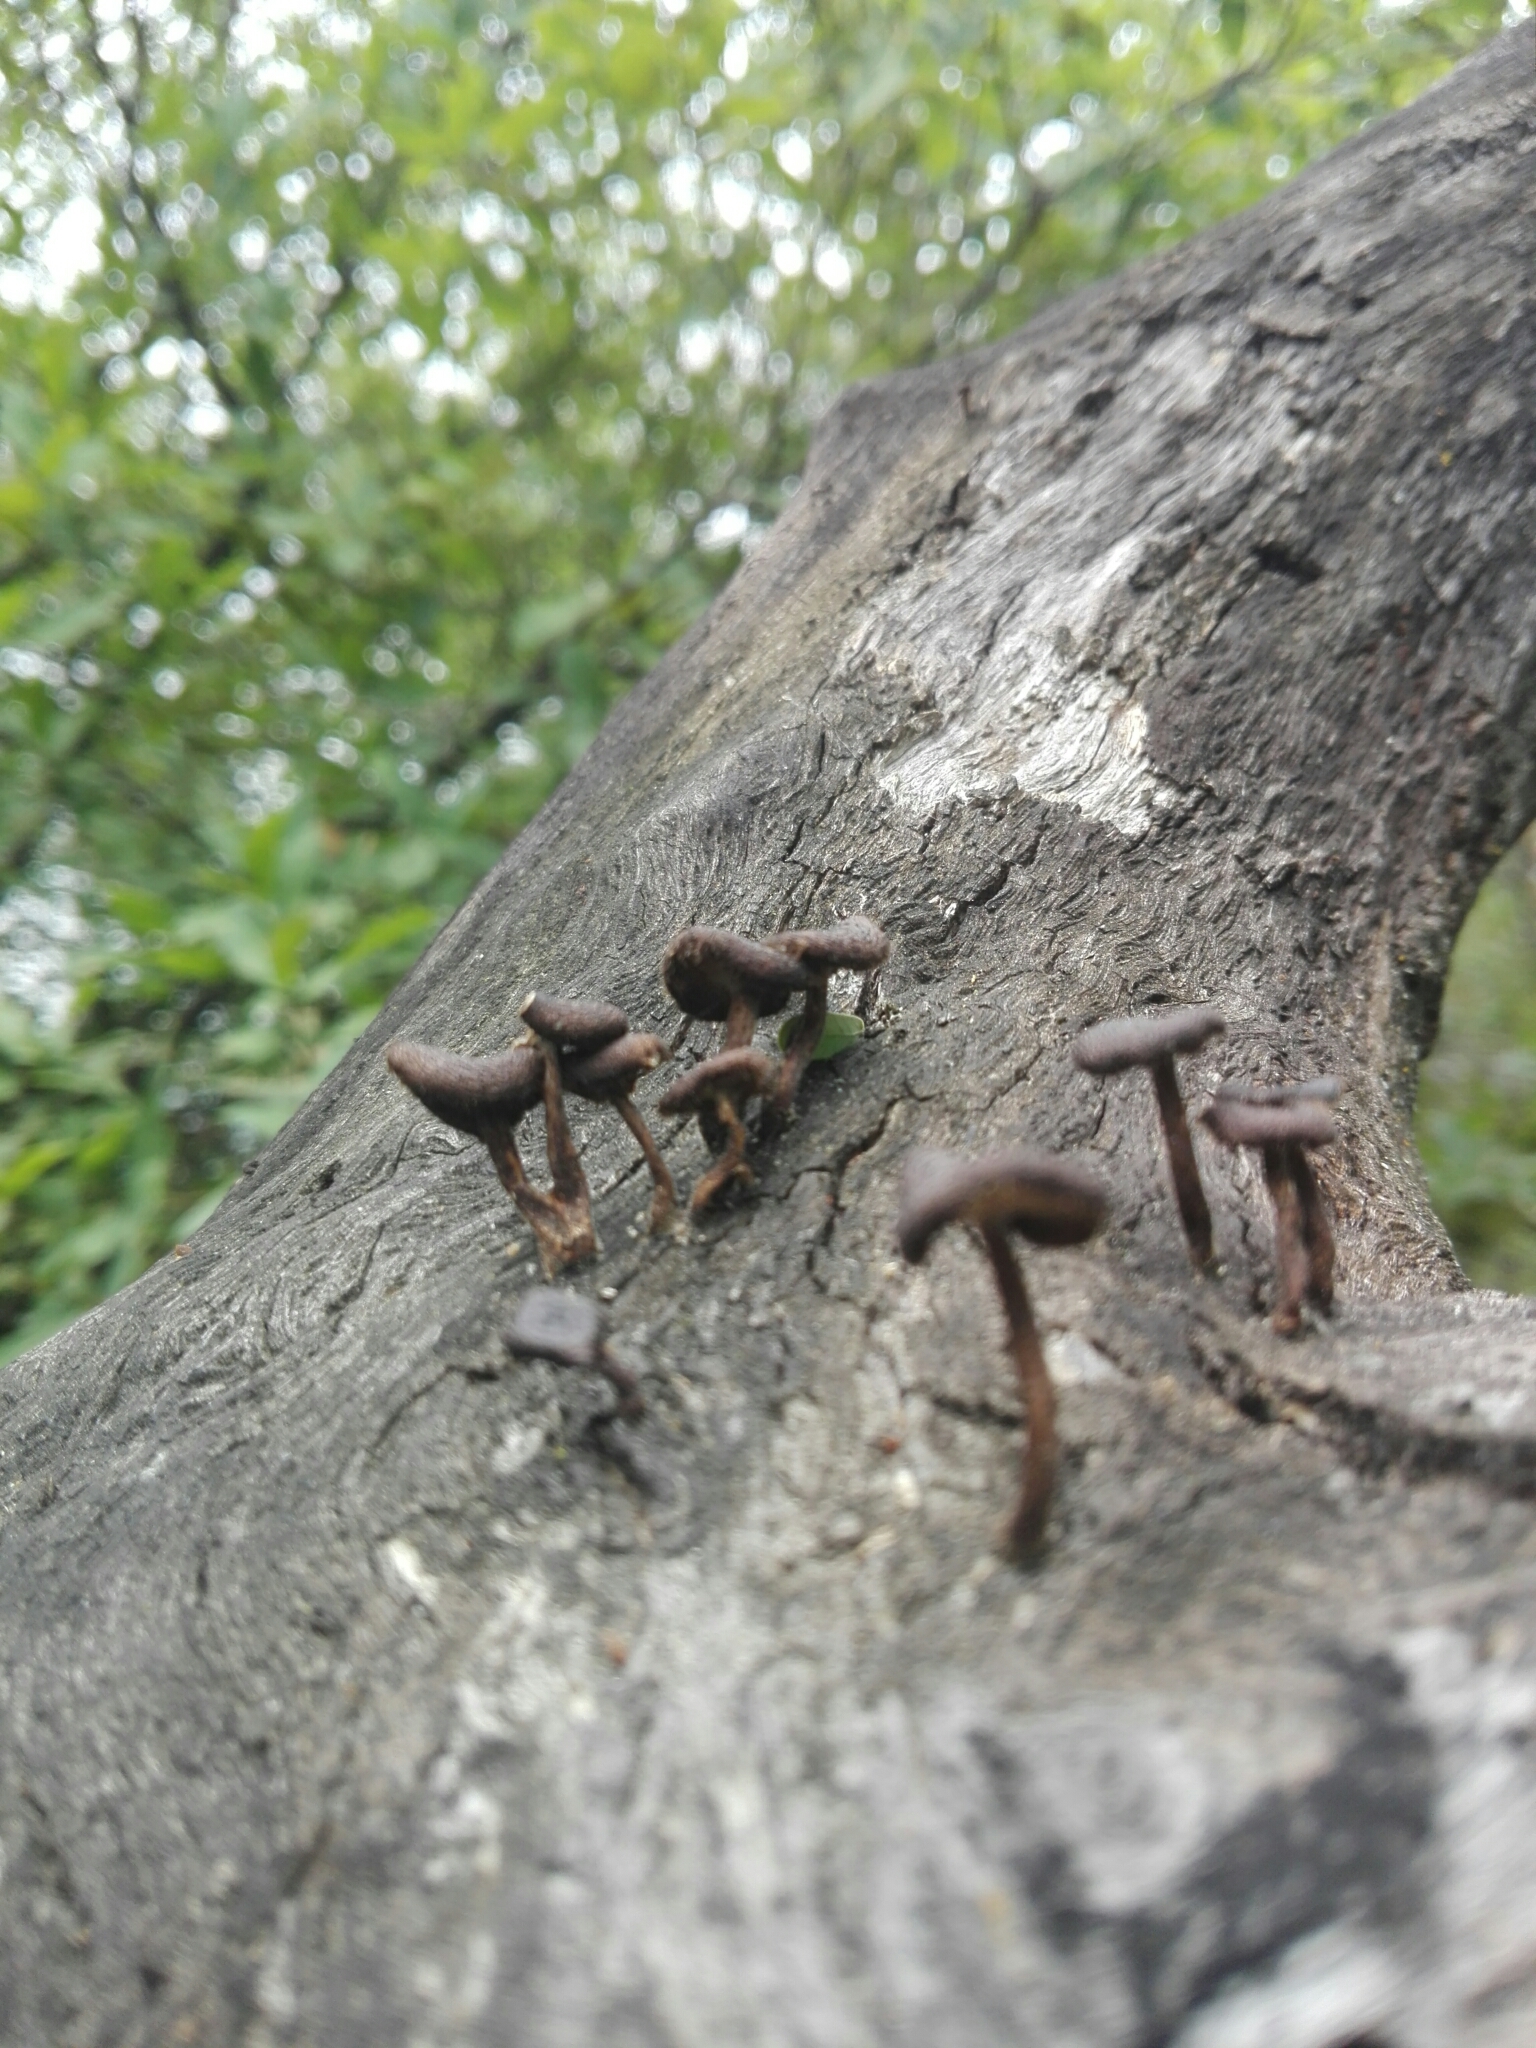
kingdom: Fungi
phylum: Basidiomycota
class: Agaricomycetes
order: Polyporales
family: Polyporaceae
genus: Lentinus
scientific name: Lentinus arcularius
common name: Spring polypore
